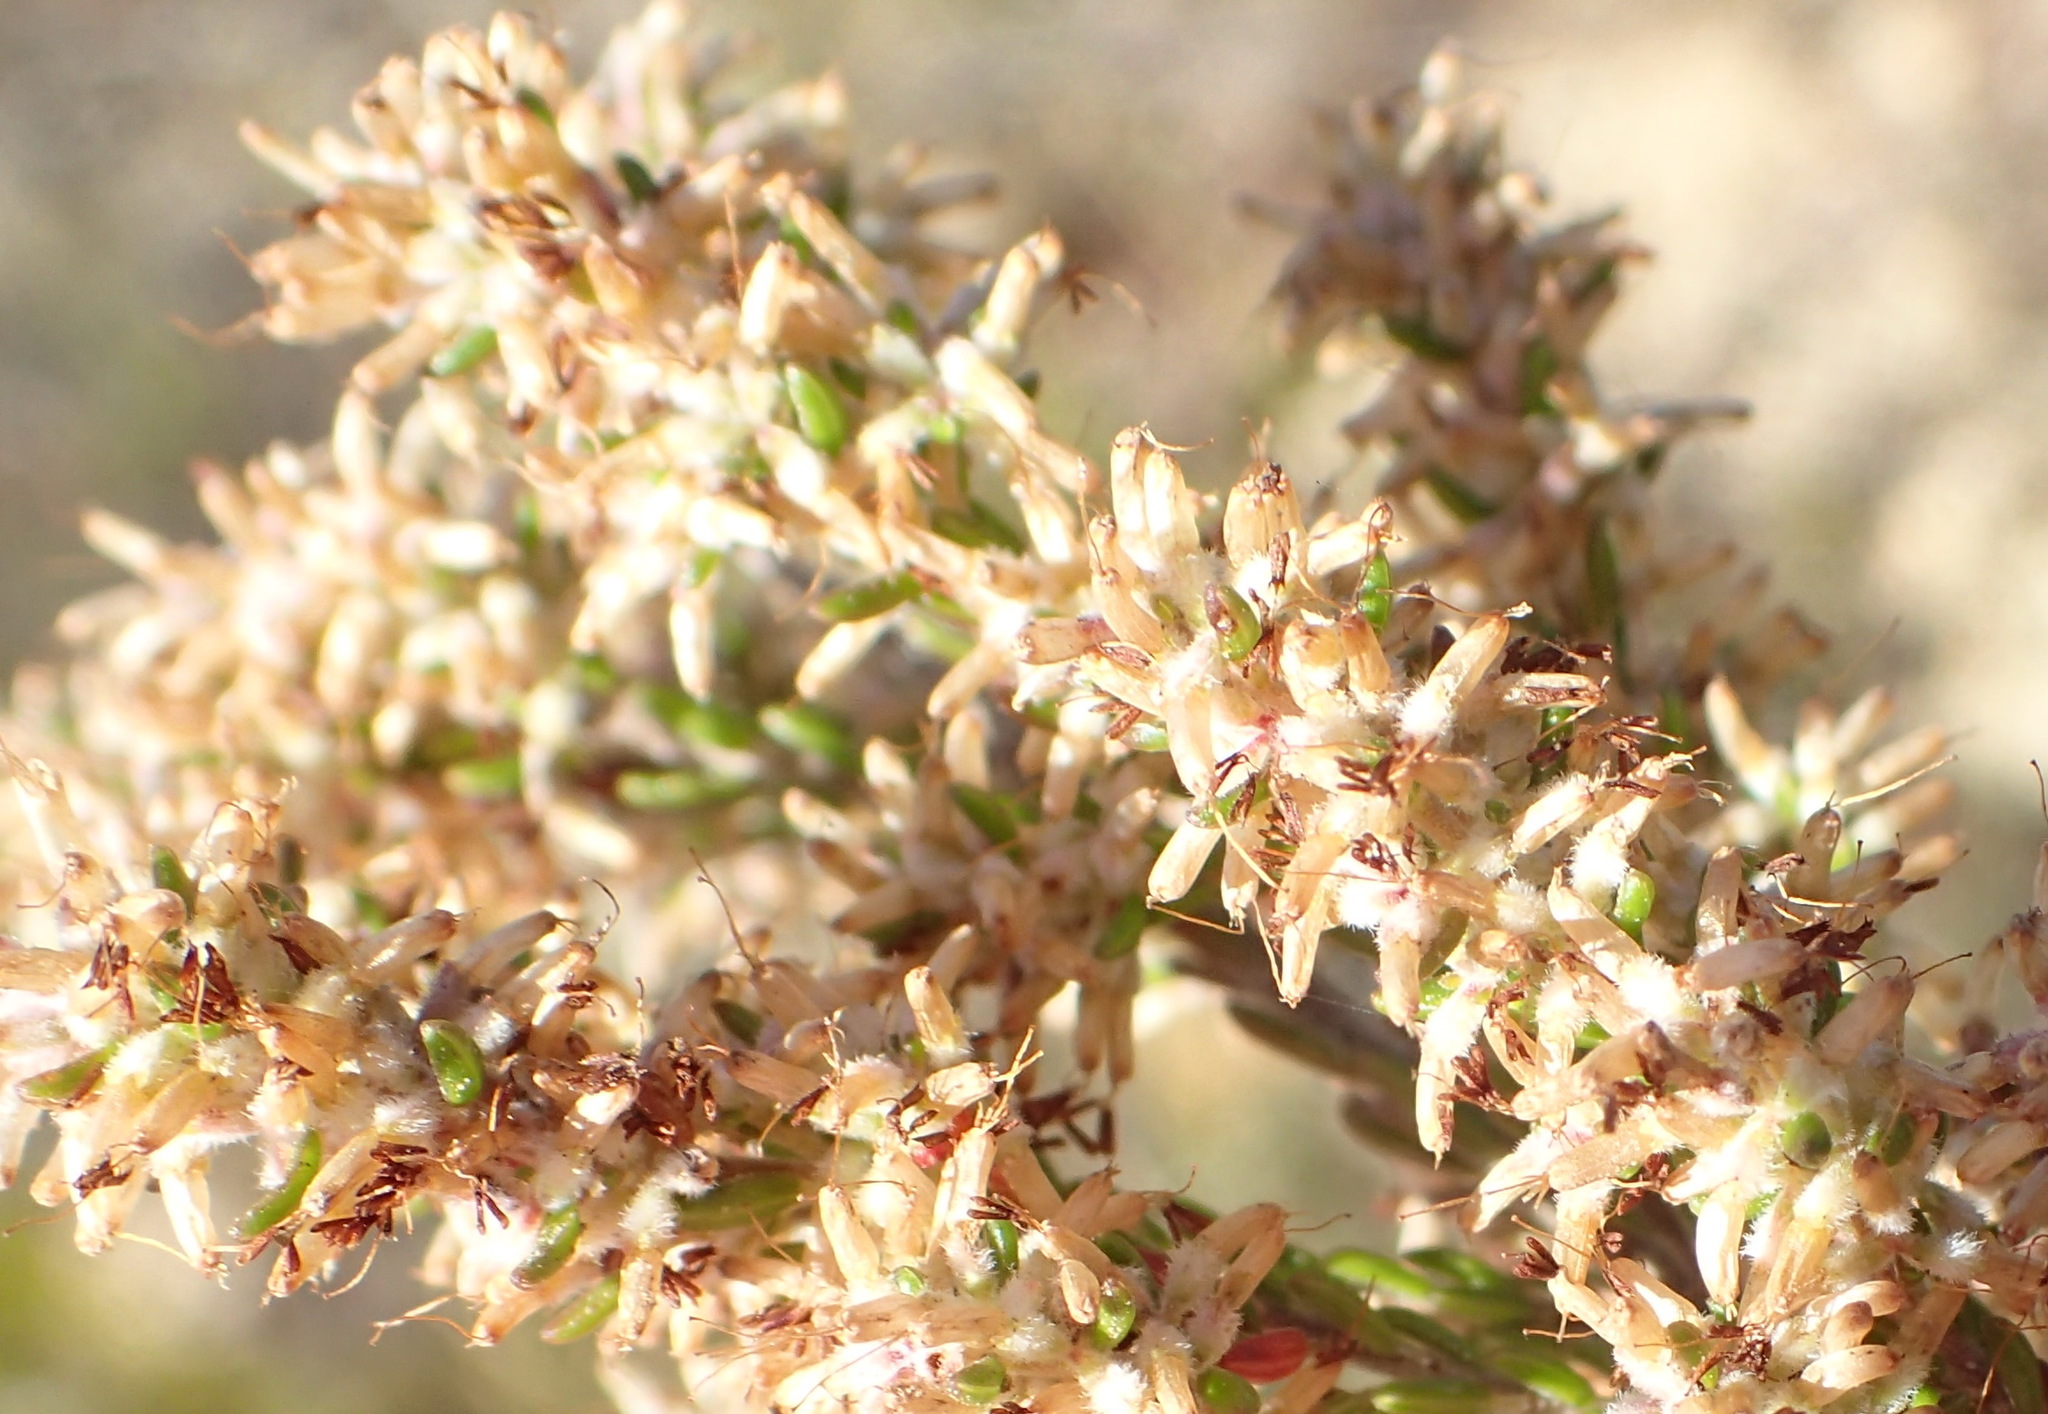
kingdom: Plantae
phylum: Tracheophyta
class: Magnoliopsida
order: Ericales
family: Ericaceae
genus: Erica
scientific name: Erica uberiflora
